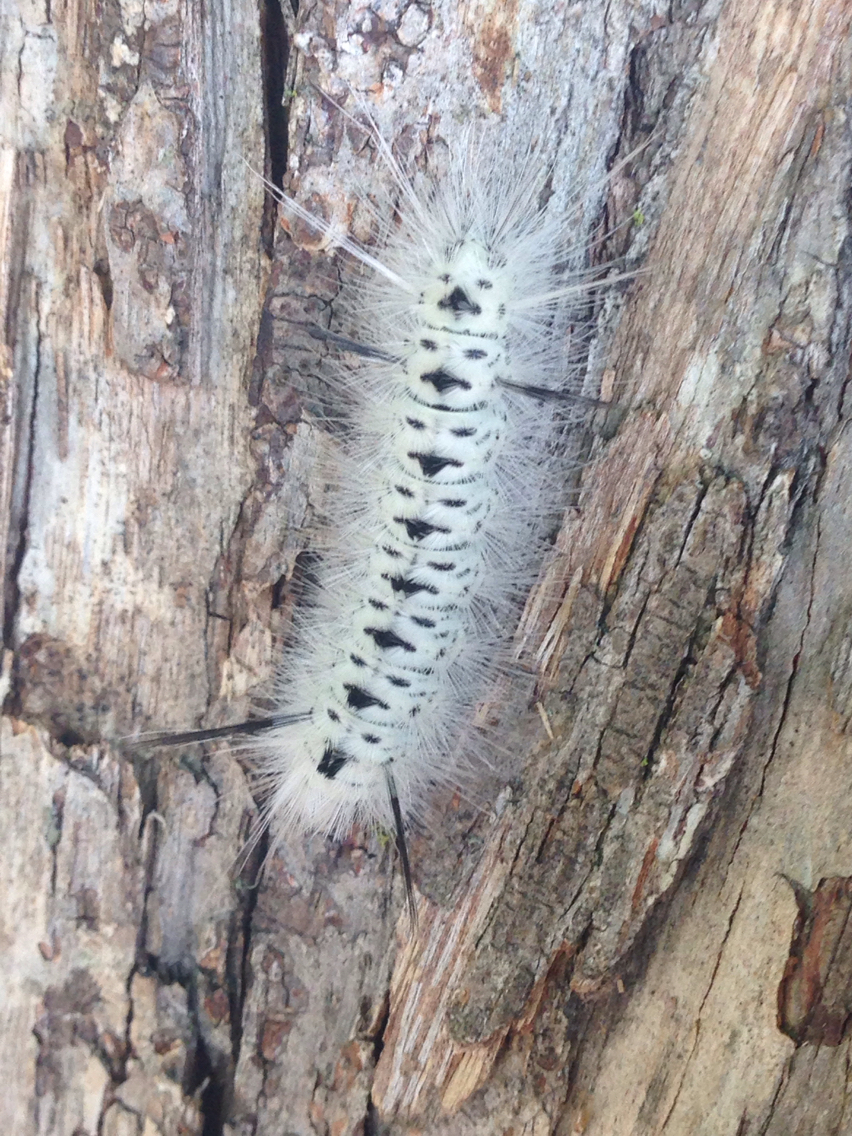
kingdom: Animalia
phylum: Arthropoda
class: Insecta
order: Lepidoptera
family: Erebidae
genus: Lophocampa
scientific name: Lophocampa caryae
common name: Hickory tussock moth
